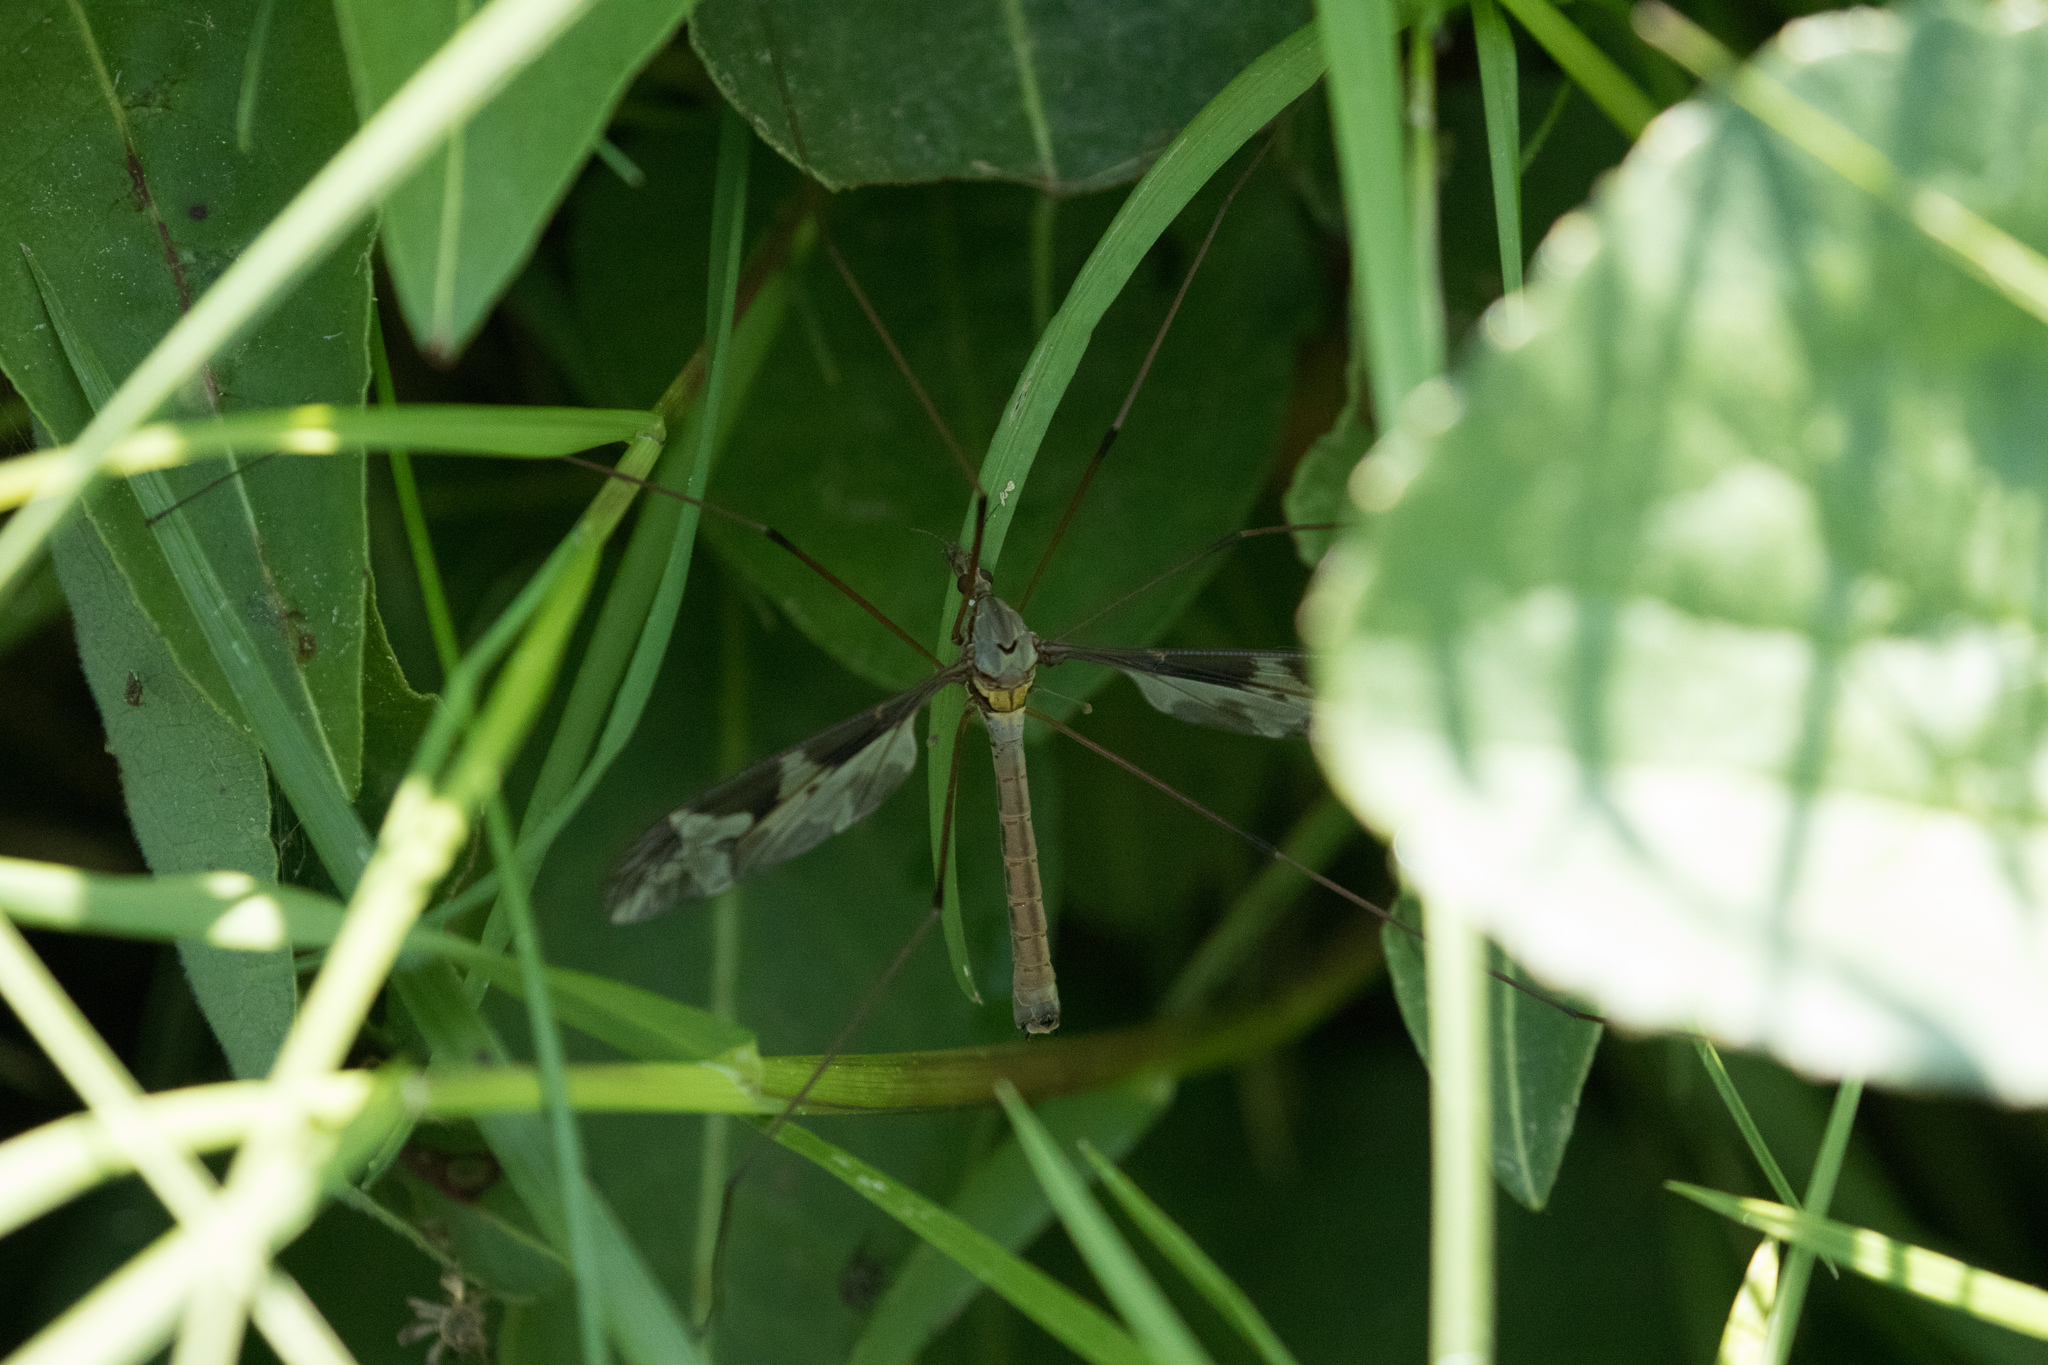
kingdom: Animalia
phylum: Arthropoda
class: Insecta
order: Diptera
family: Tipulidae
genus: Tipula
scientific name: Tipula maxima
